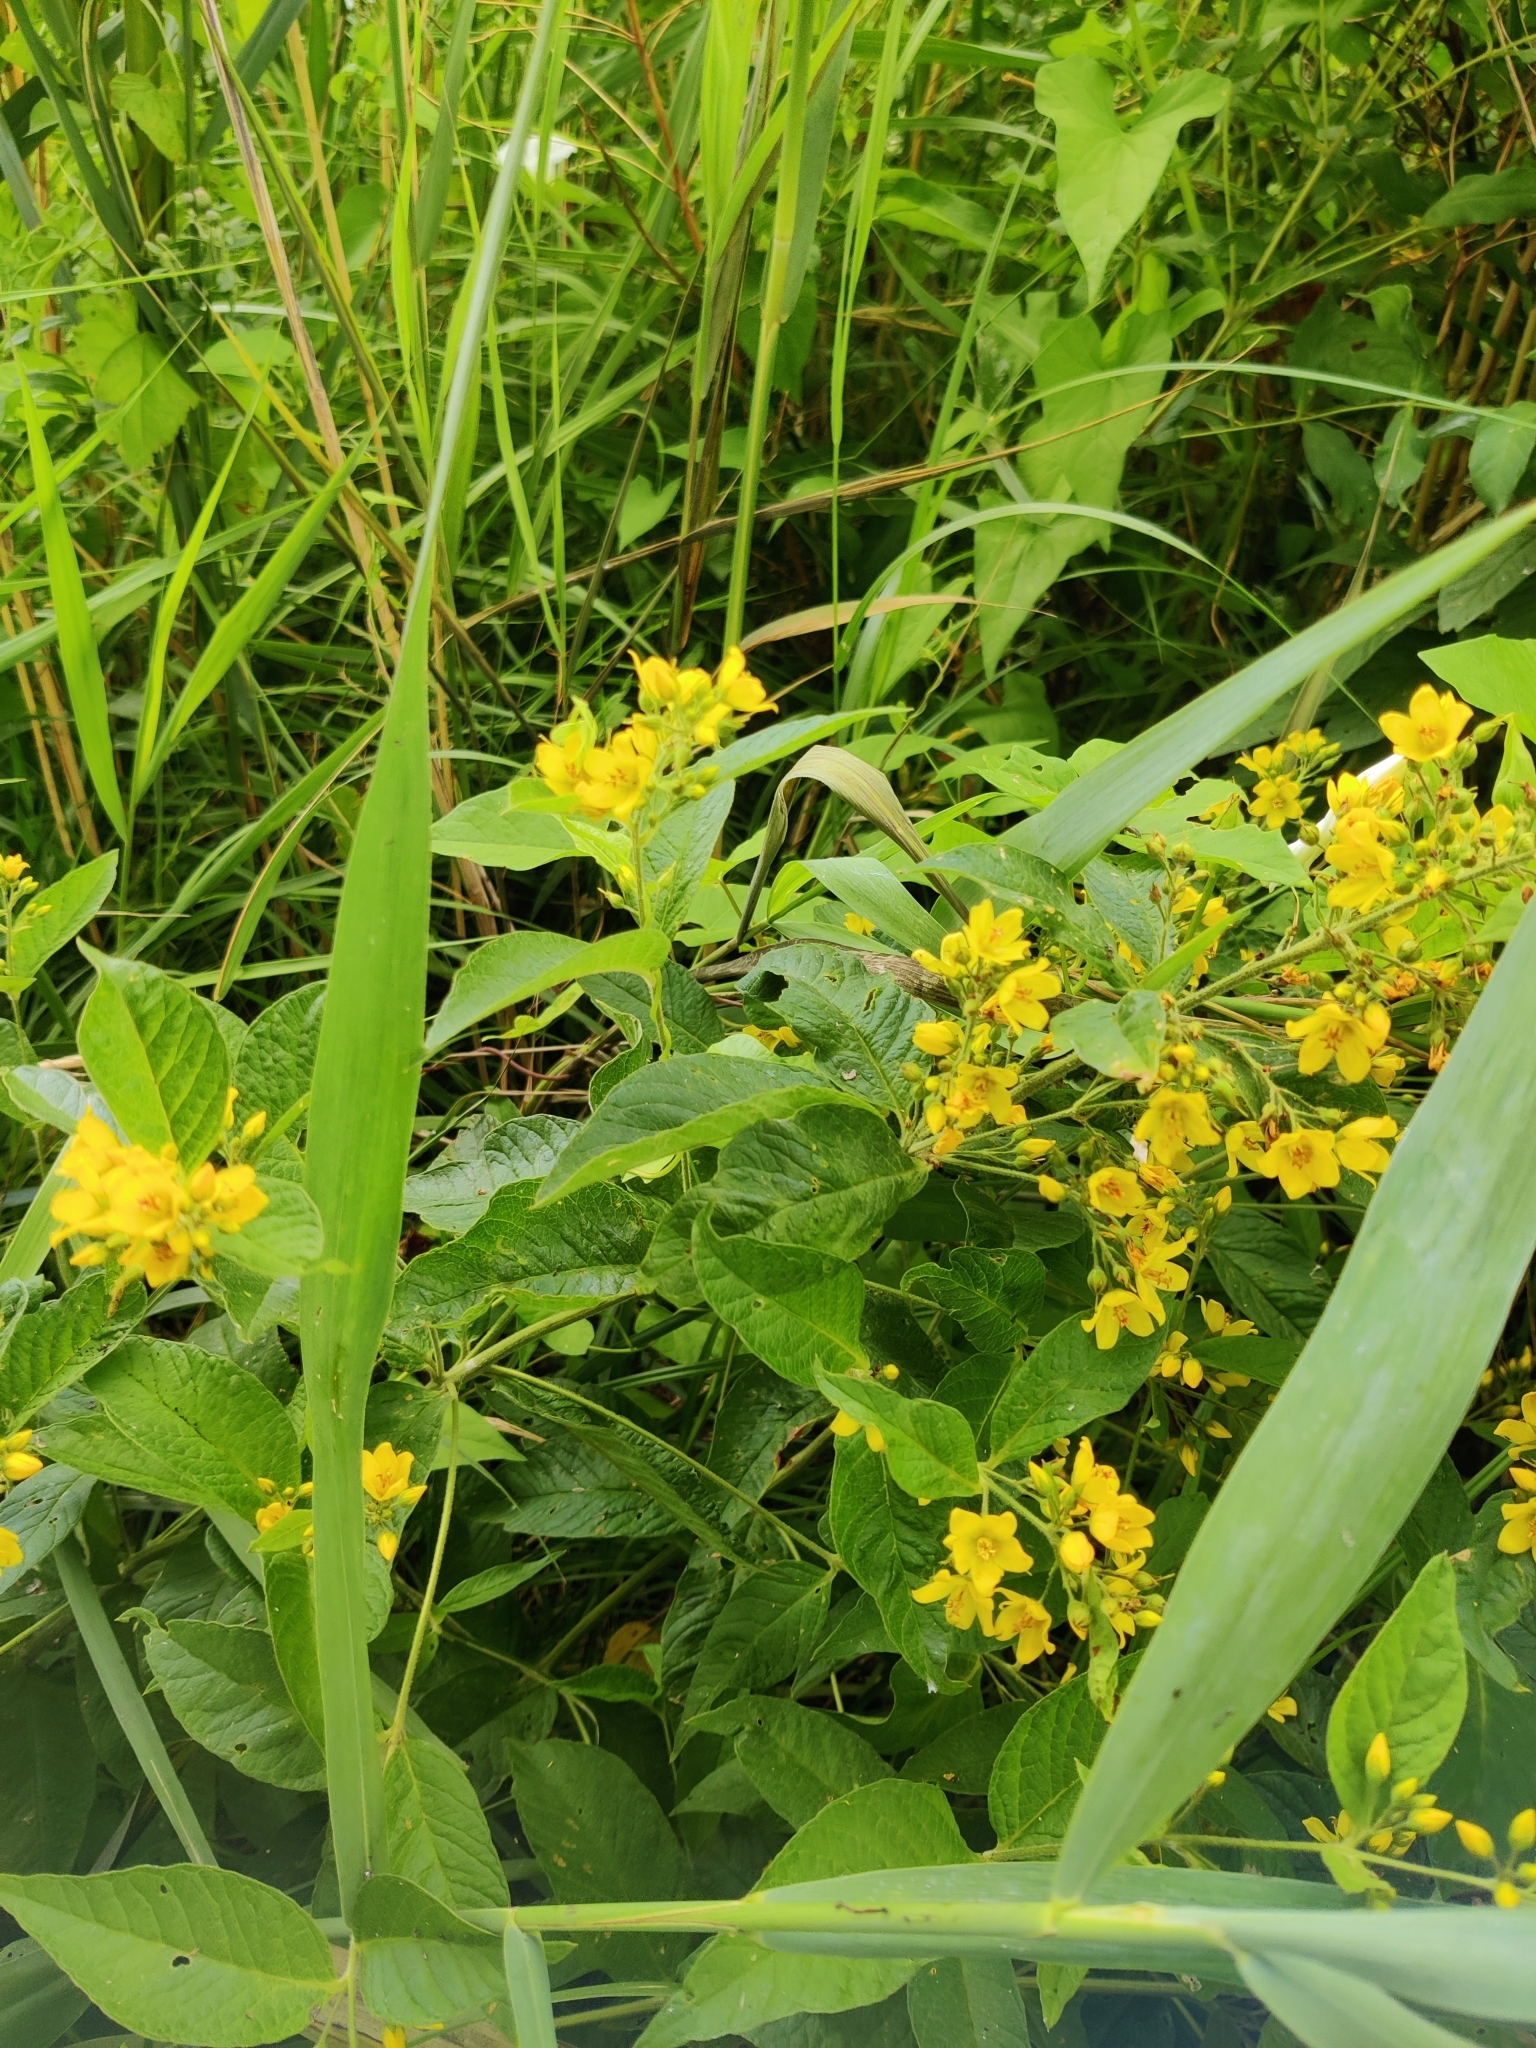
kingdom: Plantae
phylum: Tracheophyta
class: Magnoliopsida
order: Ericales
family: Primulaceae
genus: Lysimachia
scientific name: Lysimachia vulgaris
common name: Yellow loosestrife
